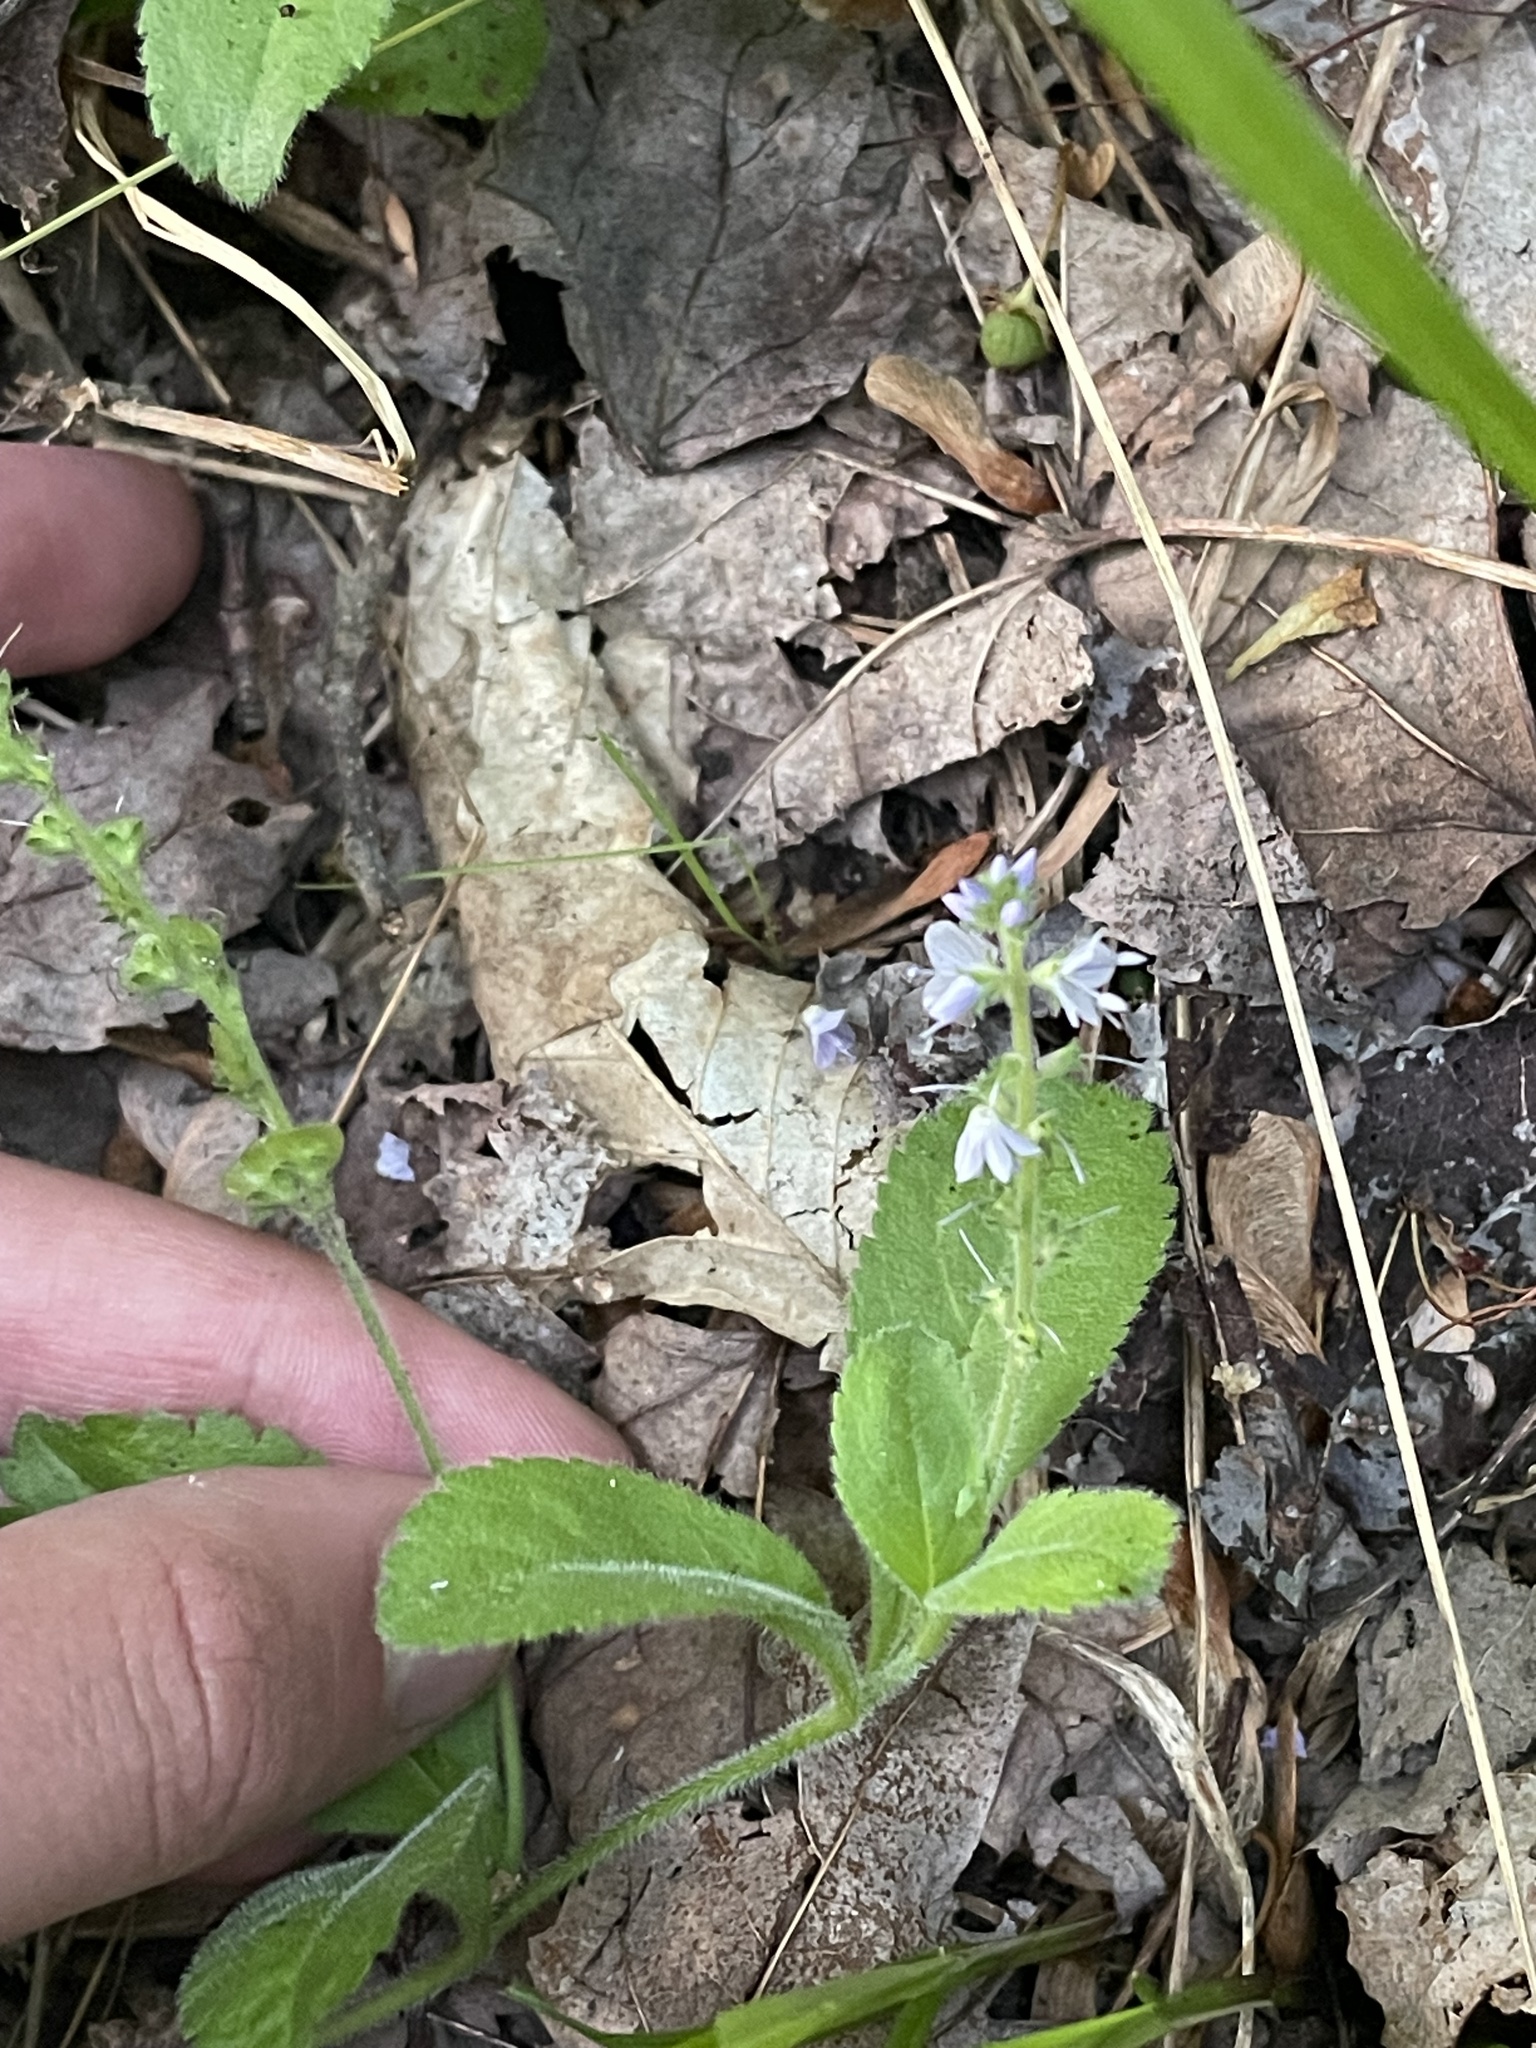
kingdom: Plantae
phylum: Tracheophyta
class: Magnoliopsida
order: Lamiales
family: Plantaginaceae
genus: Veronica
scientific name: Veronica officinalis
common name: Common speedwell
